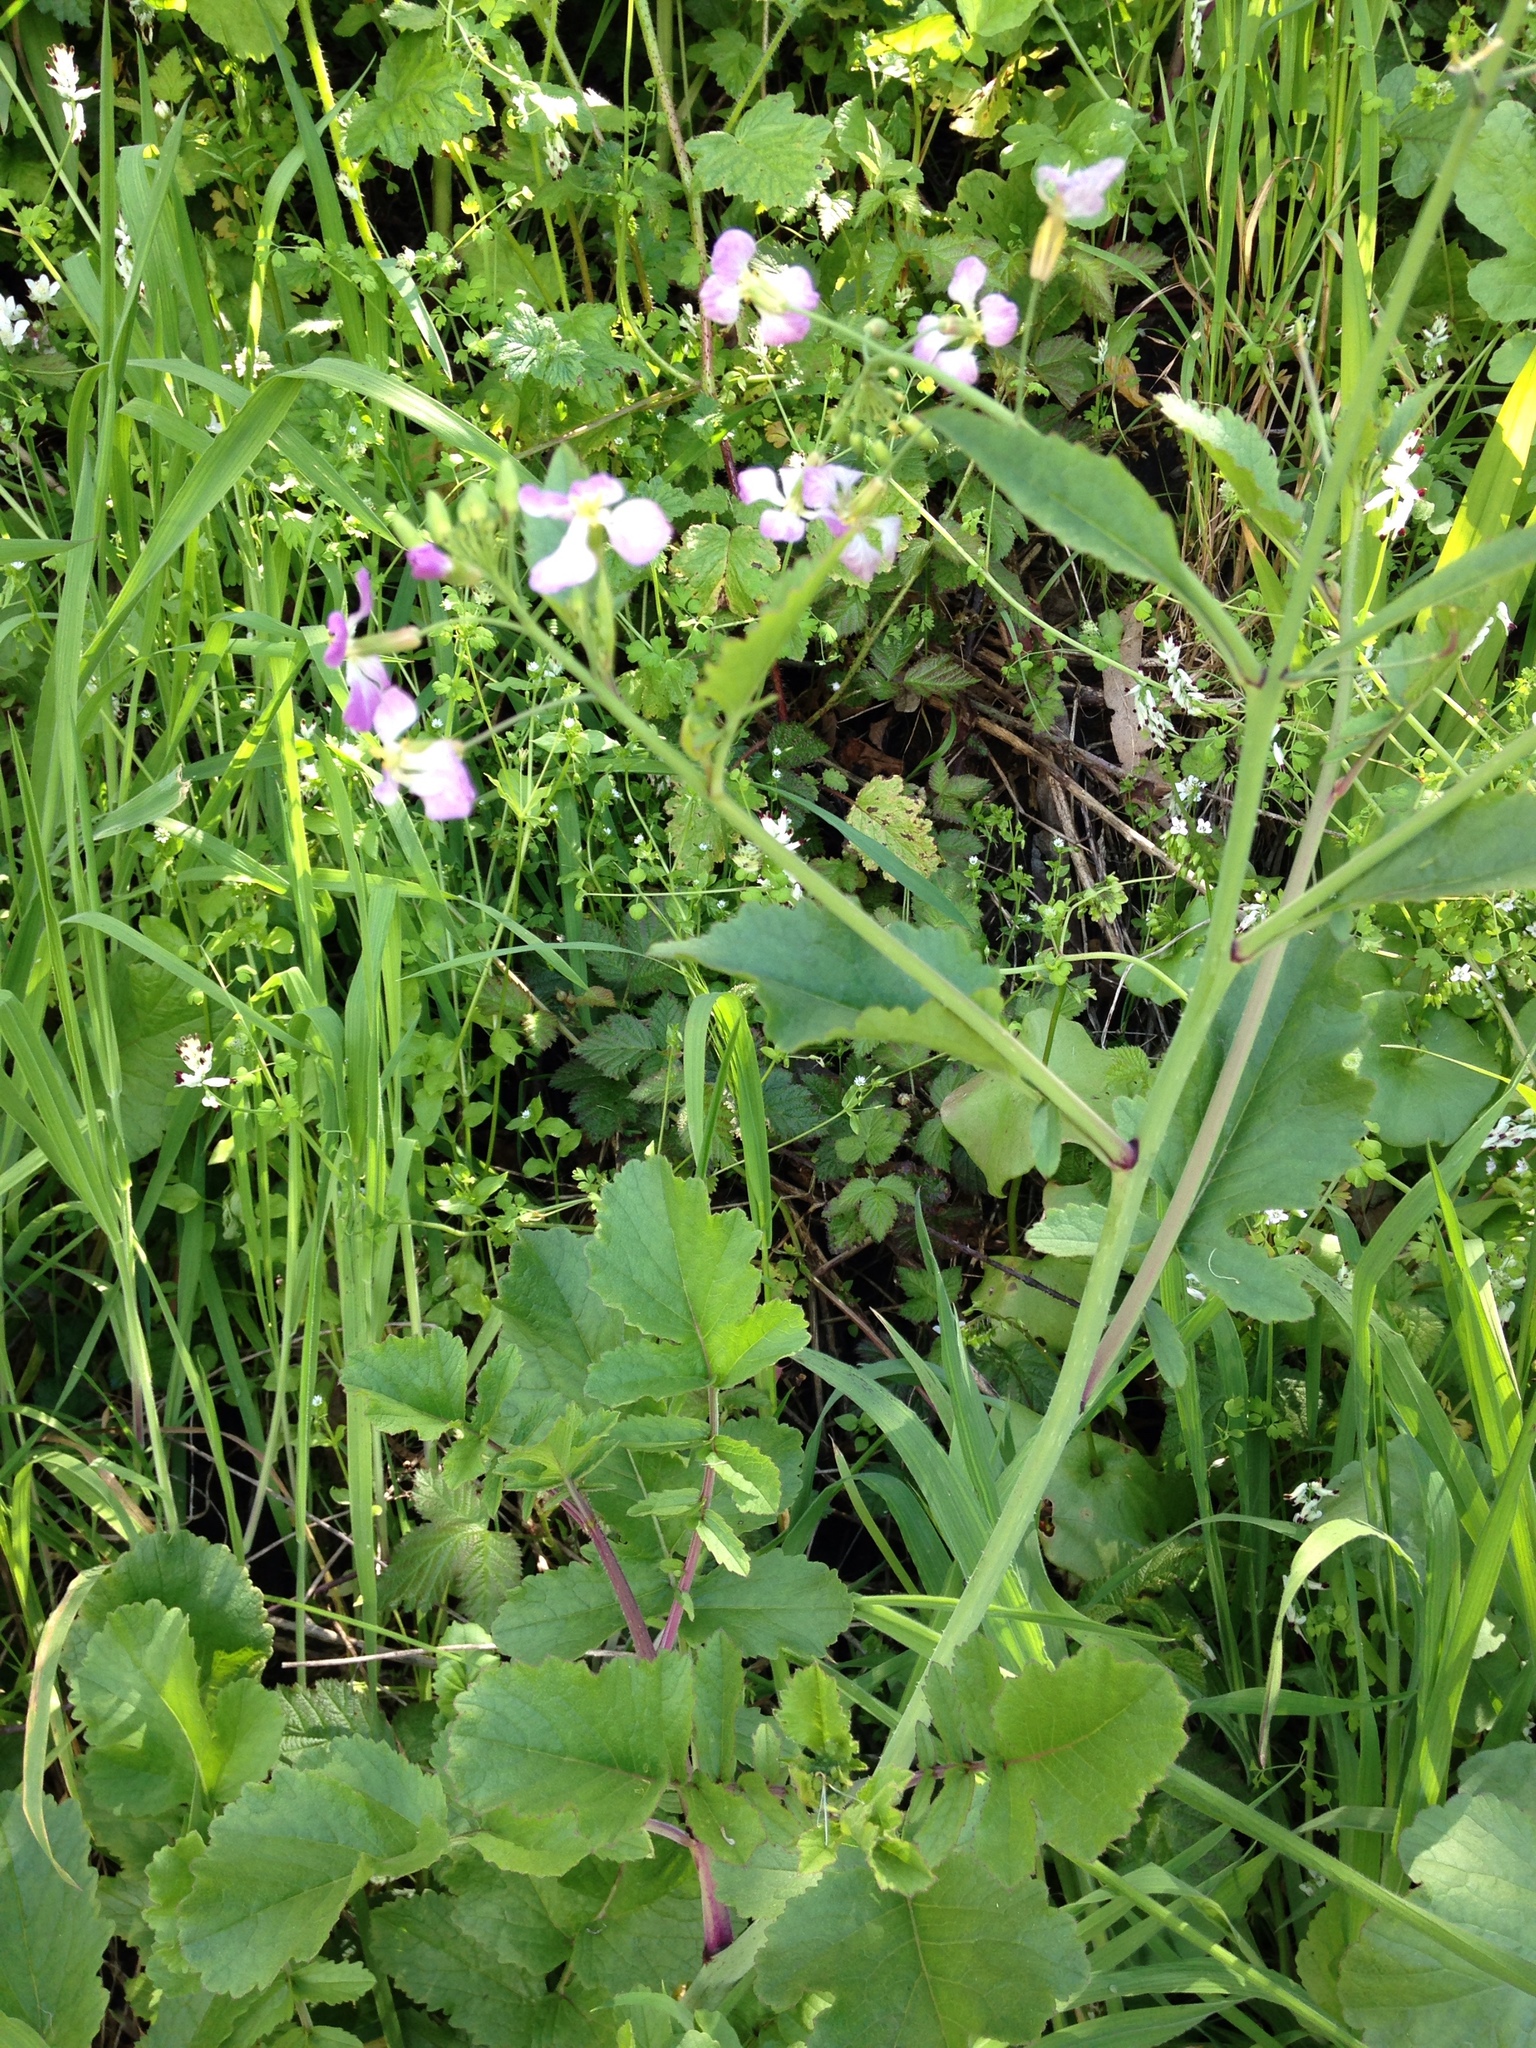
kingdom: Plantae
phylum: Tracheophyta
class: Magnoliopsida
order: Brassicales
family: Brassicaceae
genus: Raphanus
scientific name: Raphanus sativus
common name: Cultivated radish
